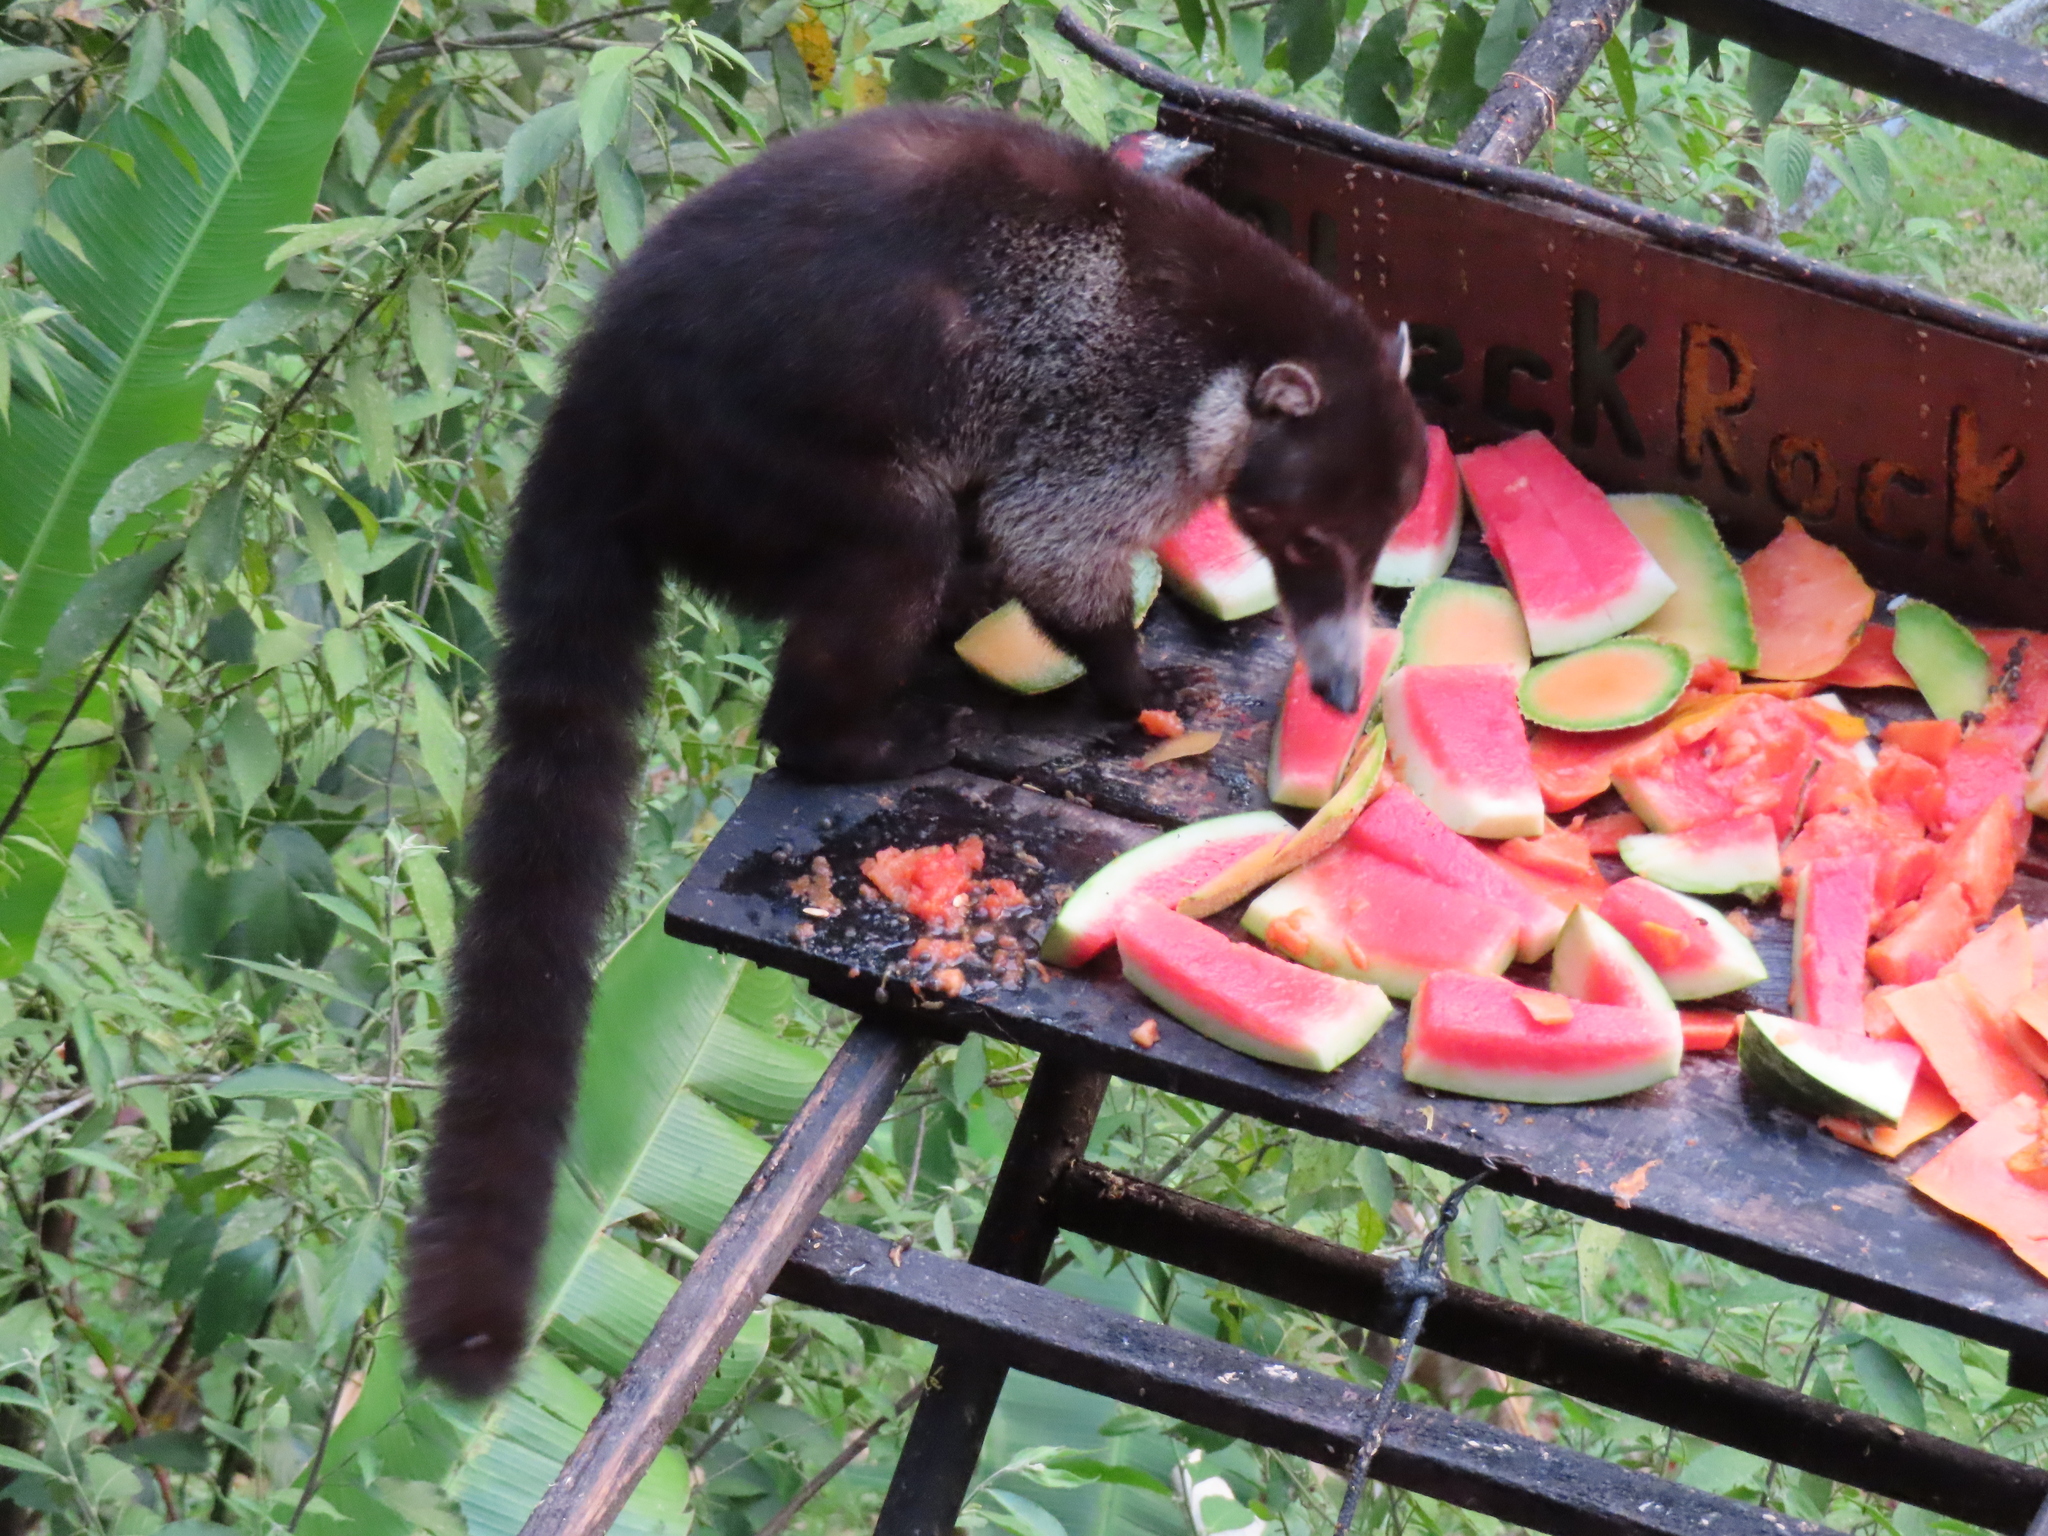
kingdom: Animalia
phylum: Chordata
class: Mammalia
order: Carnivora
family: Procyonidae
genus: Nasua
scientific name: Nasua narica
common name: White-nosed coati
